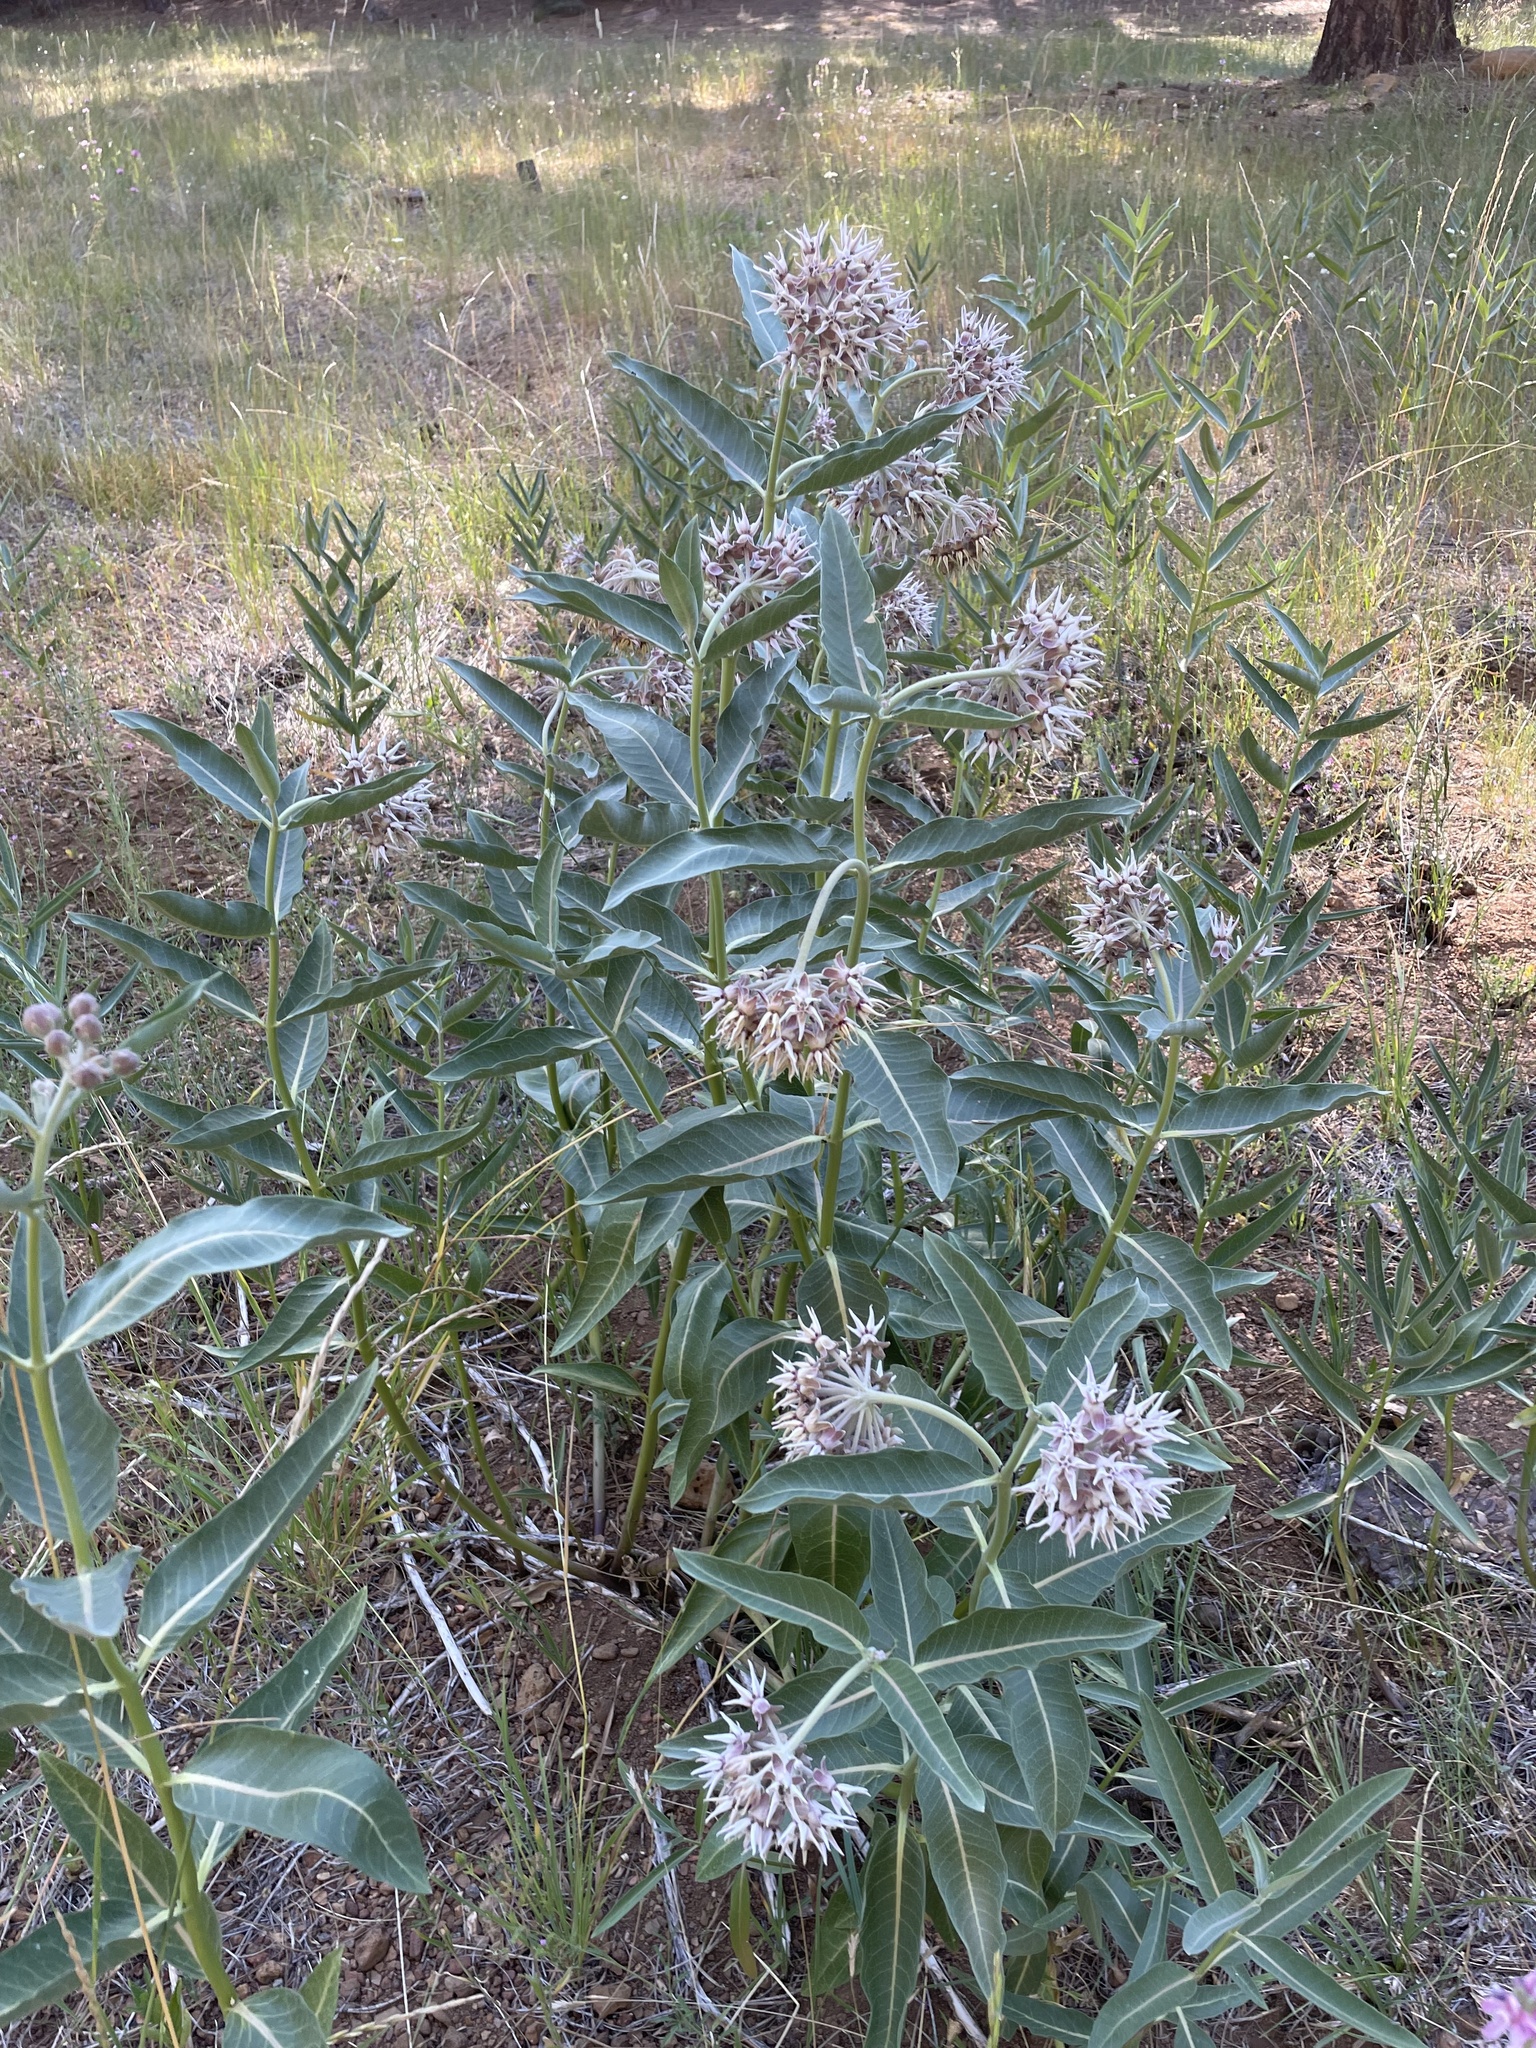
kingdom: Plantae
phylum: Tracheophyta
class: Magnoliopsida
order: Gentianales
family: Apocynaceae
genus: Asclepias
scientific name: Asclepias speciosa
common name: Showy milkweed
